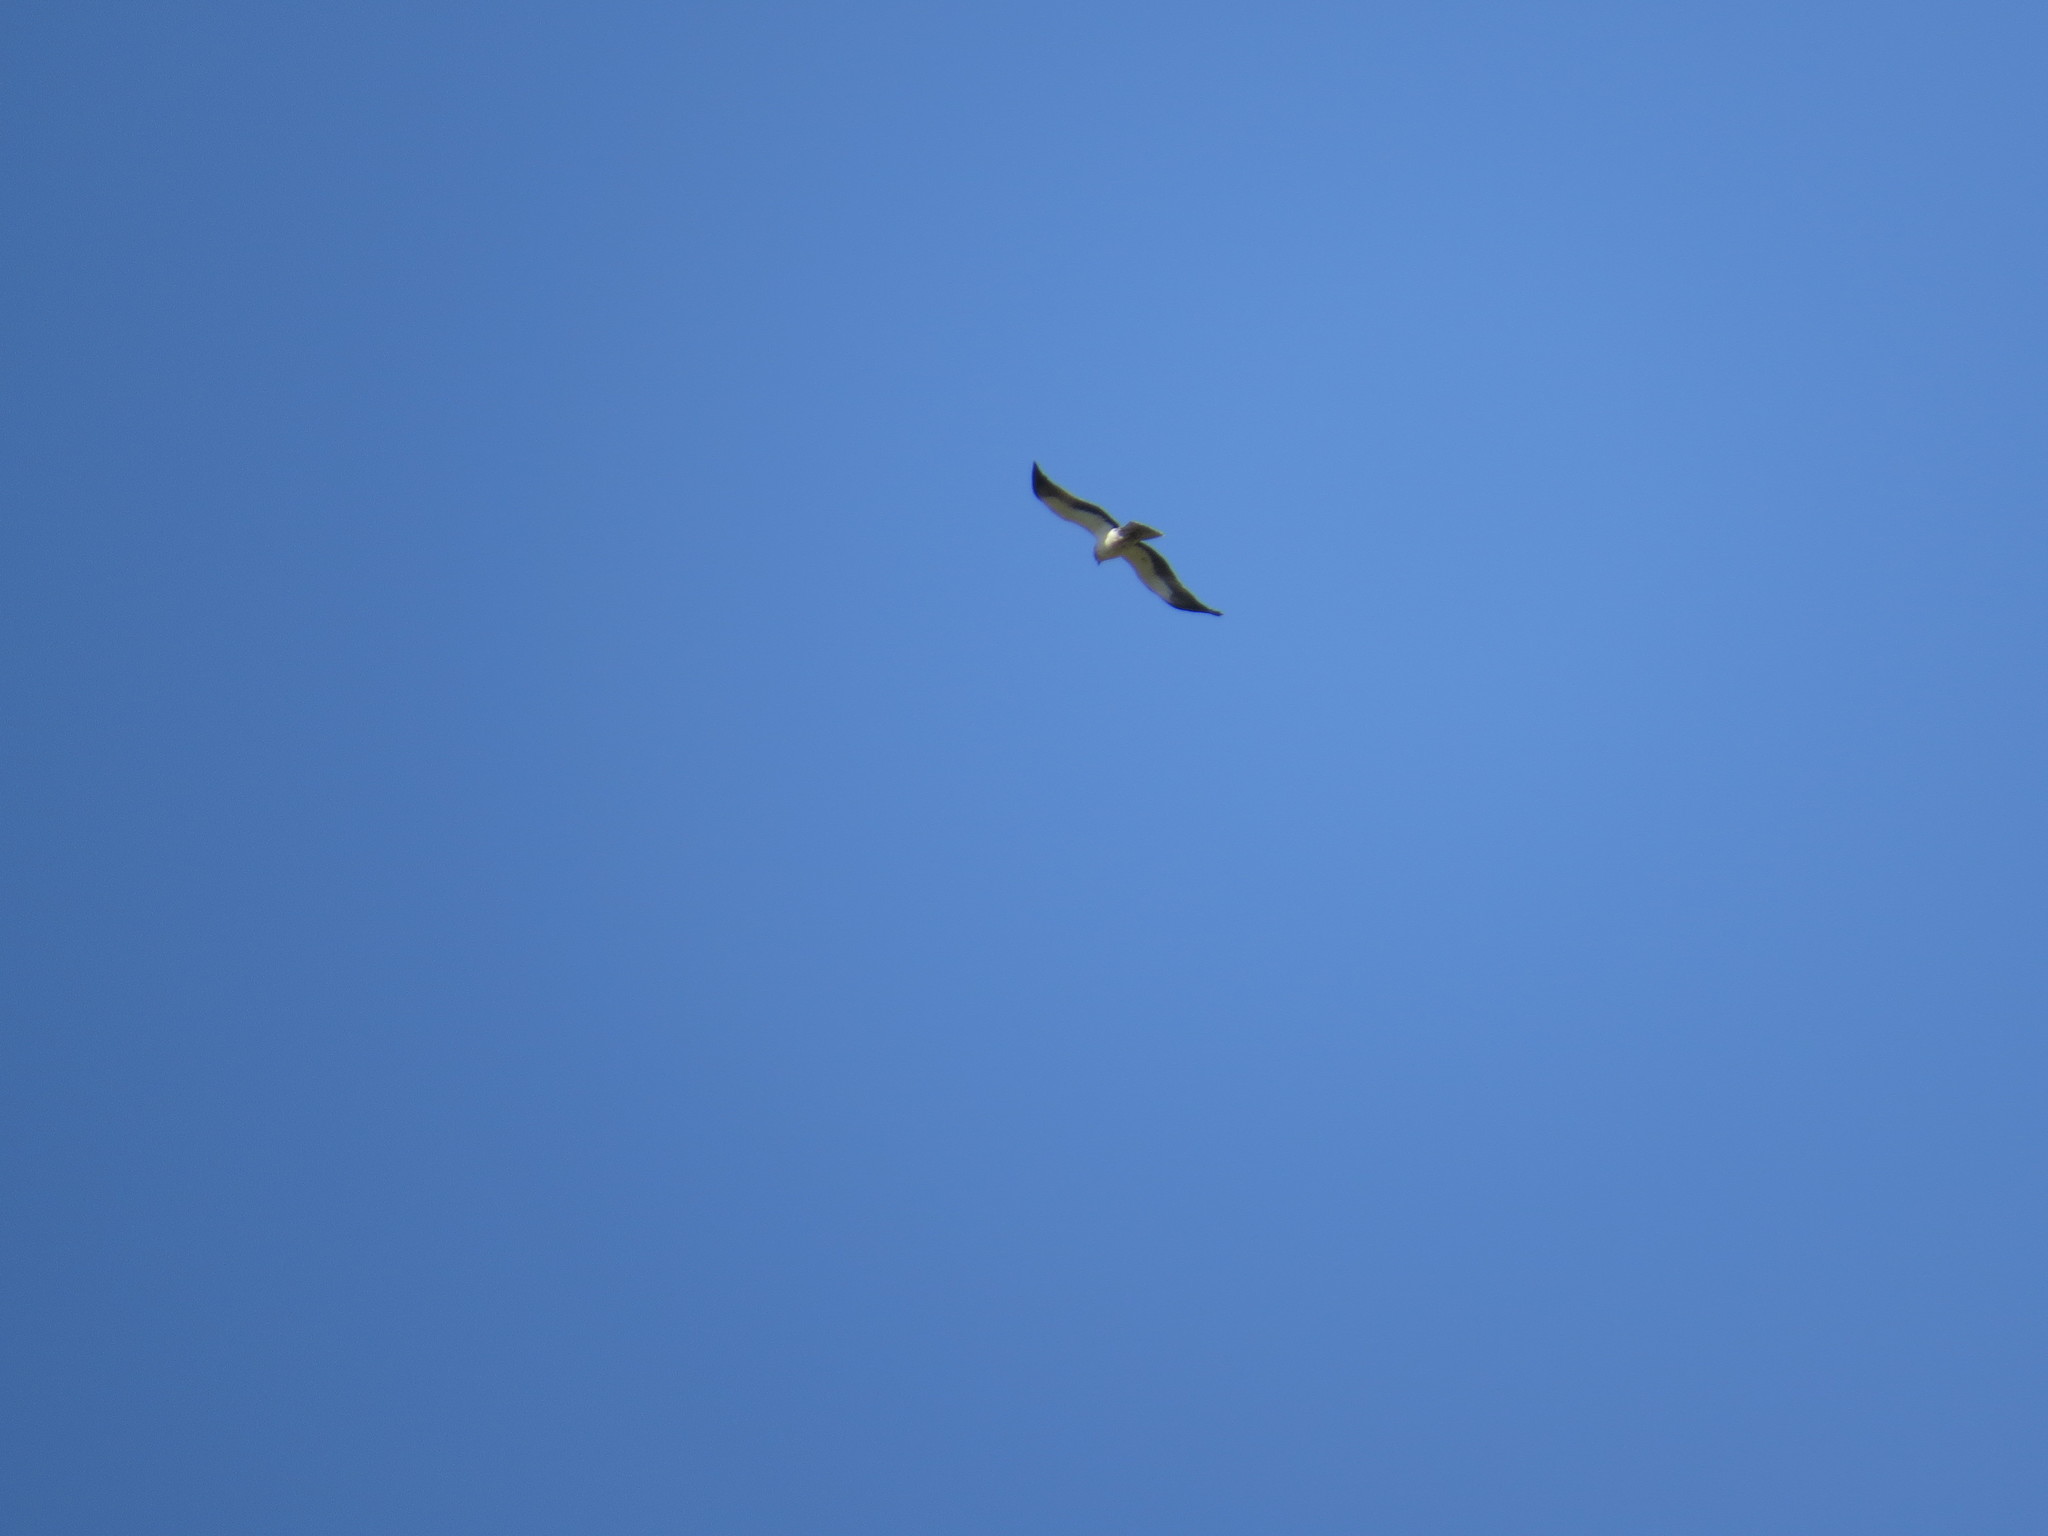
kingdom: Animalia
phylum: Chordata
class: Aves
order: Accipitriformes
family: Accipitridae
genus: Hieraaetus
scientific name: Hieraaetus pennatus
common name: Booted eagle
